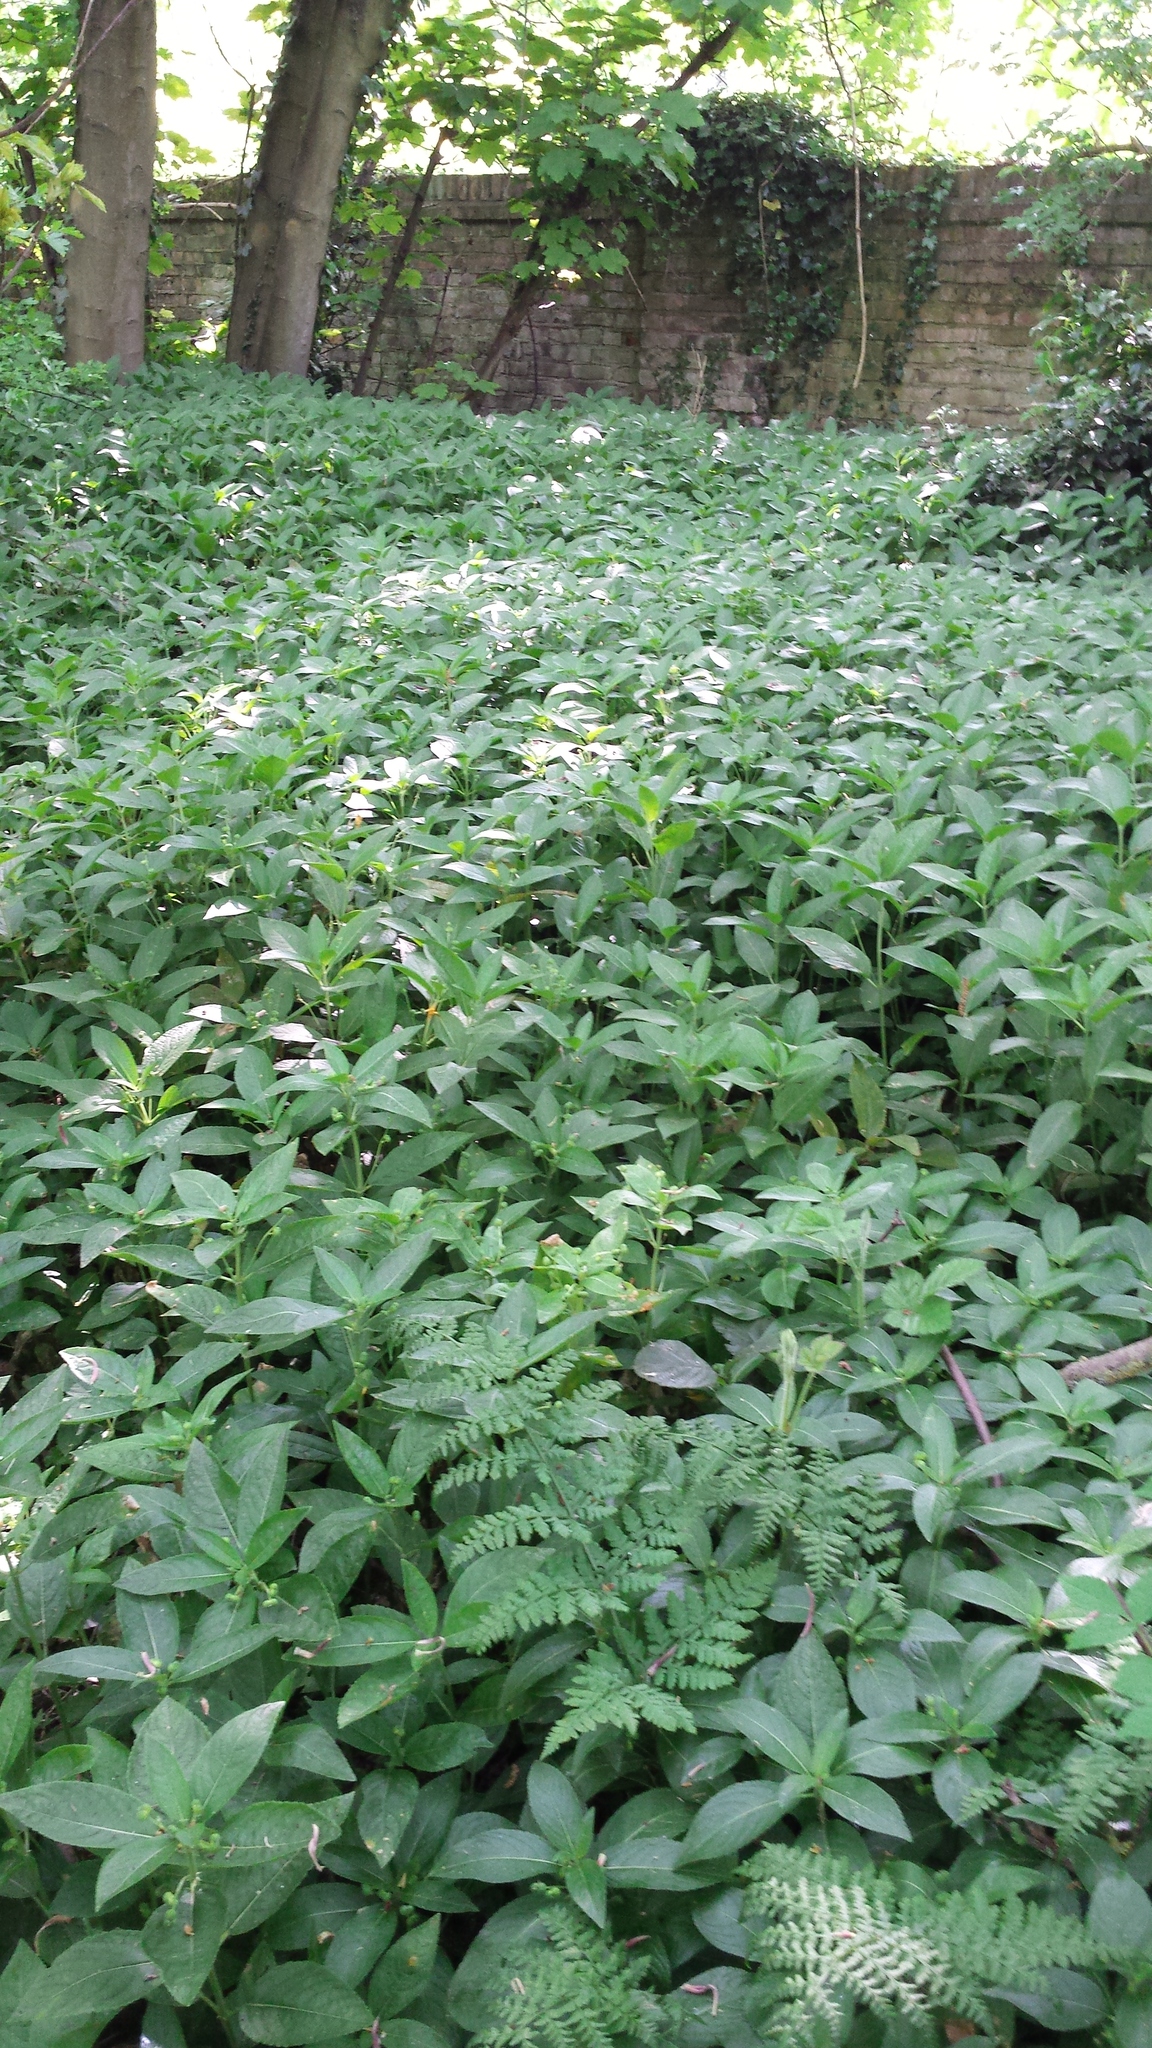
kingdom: Plantae
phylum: Tracheophyta
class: Magnoliopsida
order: Malpighiales
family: Euphorbiaceae
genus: Mercurialis
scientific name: Mercurialis perennis
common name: Dog mercury
